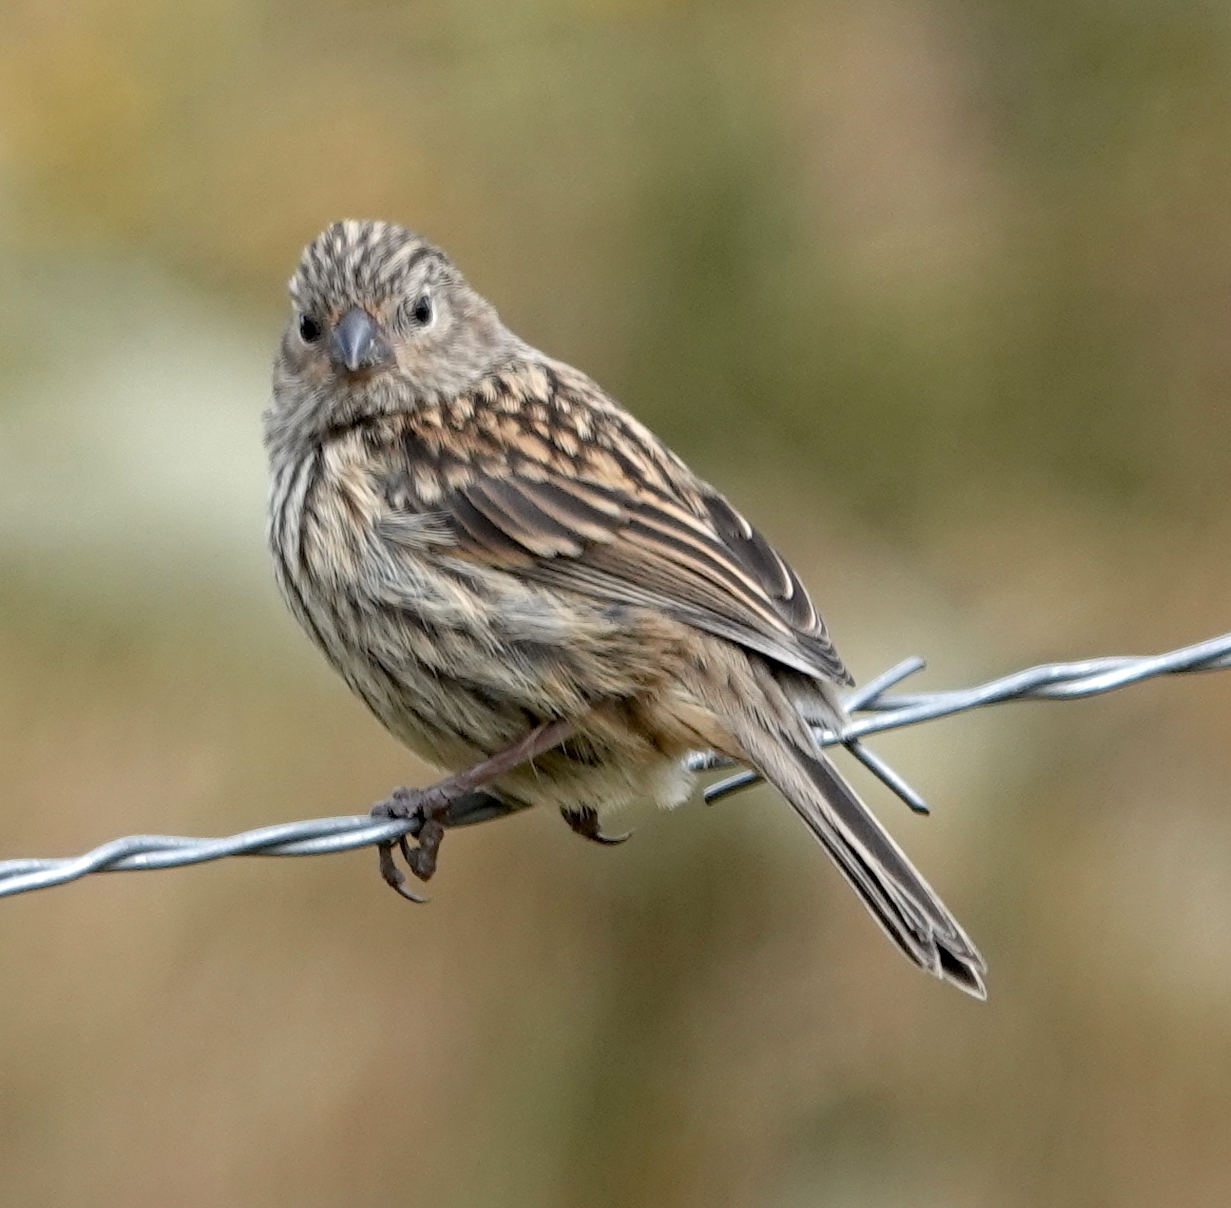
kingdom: Animalia
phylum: Chordata
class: Aves
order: Passeriformes
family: Thraupidae
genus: Catamenia
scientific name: Catamenia inornata
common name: Plain-colored seedeater
